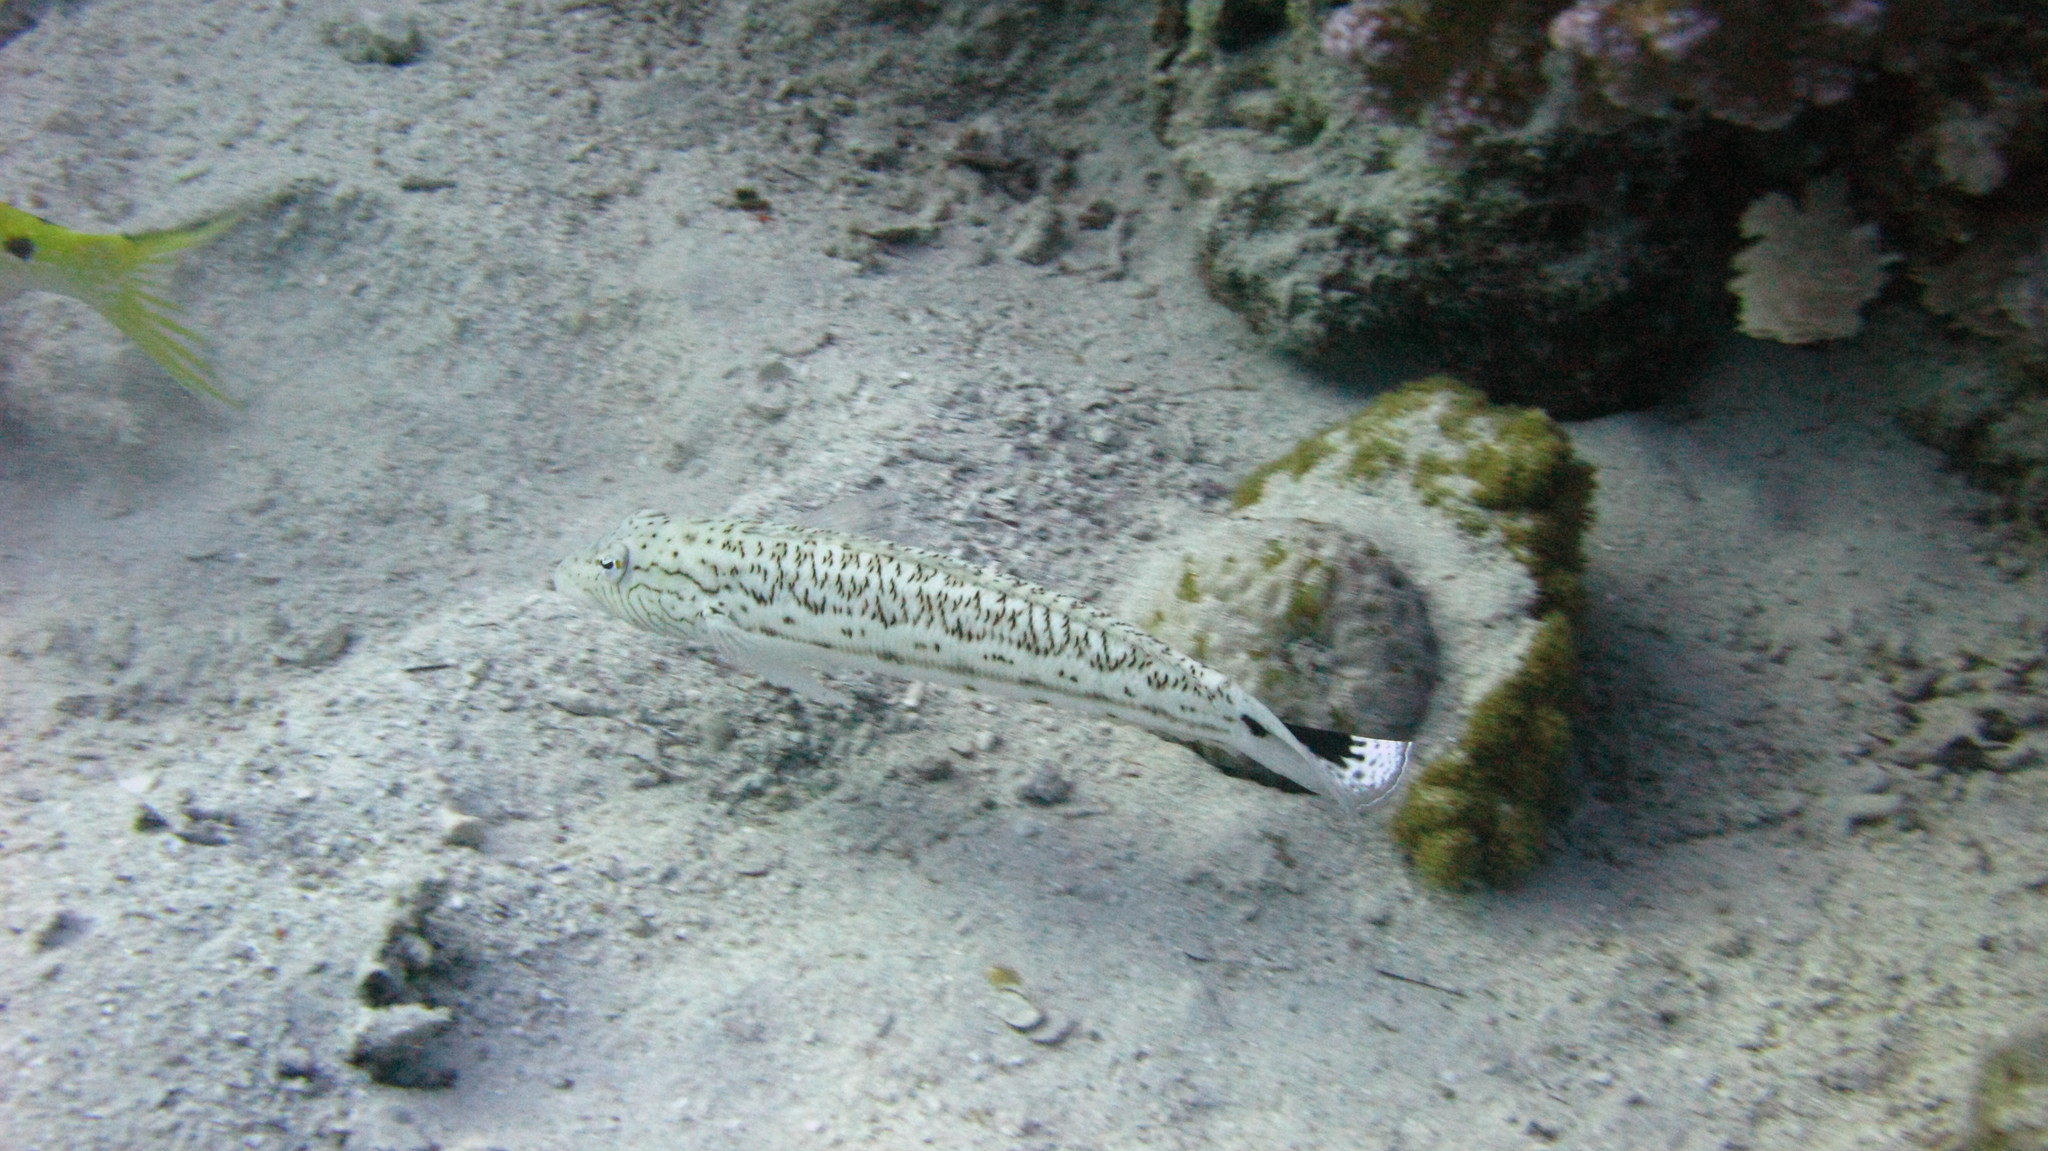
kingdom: Animalia
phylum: Chordata
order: Perciformes
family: Pinguipedidae
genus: Parapercis
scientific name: Parapercis hexophtalma
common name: Speckled sandperch
